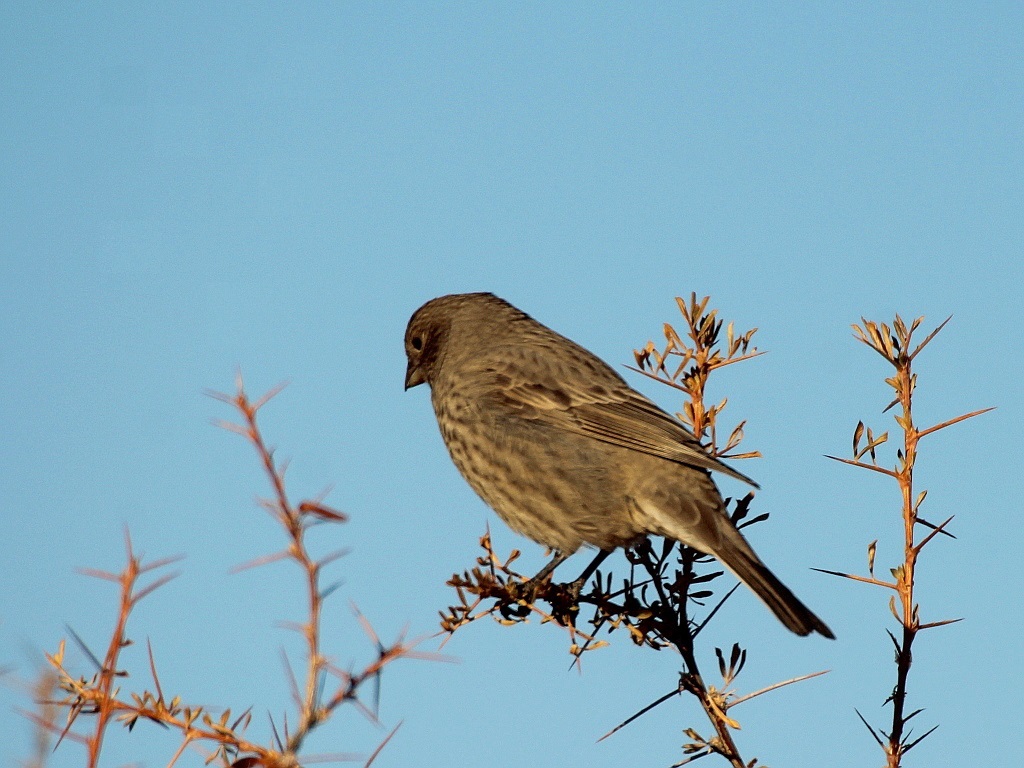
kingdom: Animalia
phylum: Chordata
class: Aves
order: Passeriformes
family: Fringillidae
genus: Carpodacus
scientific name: Carpodacus rubicilla
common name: Great rosefinch
